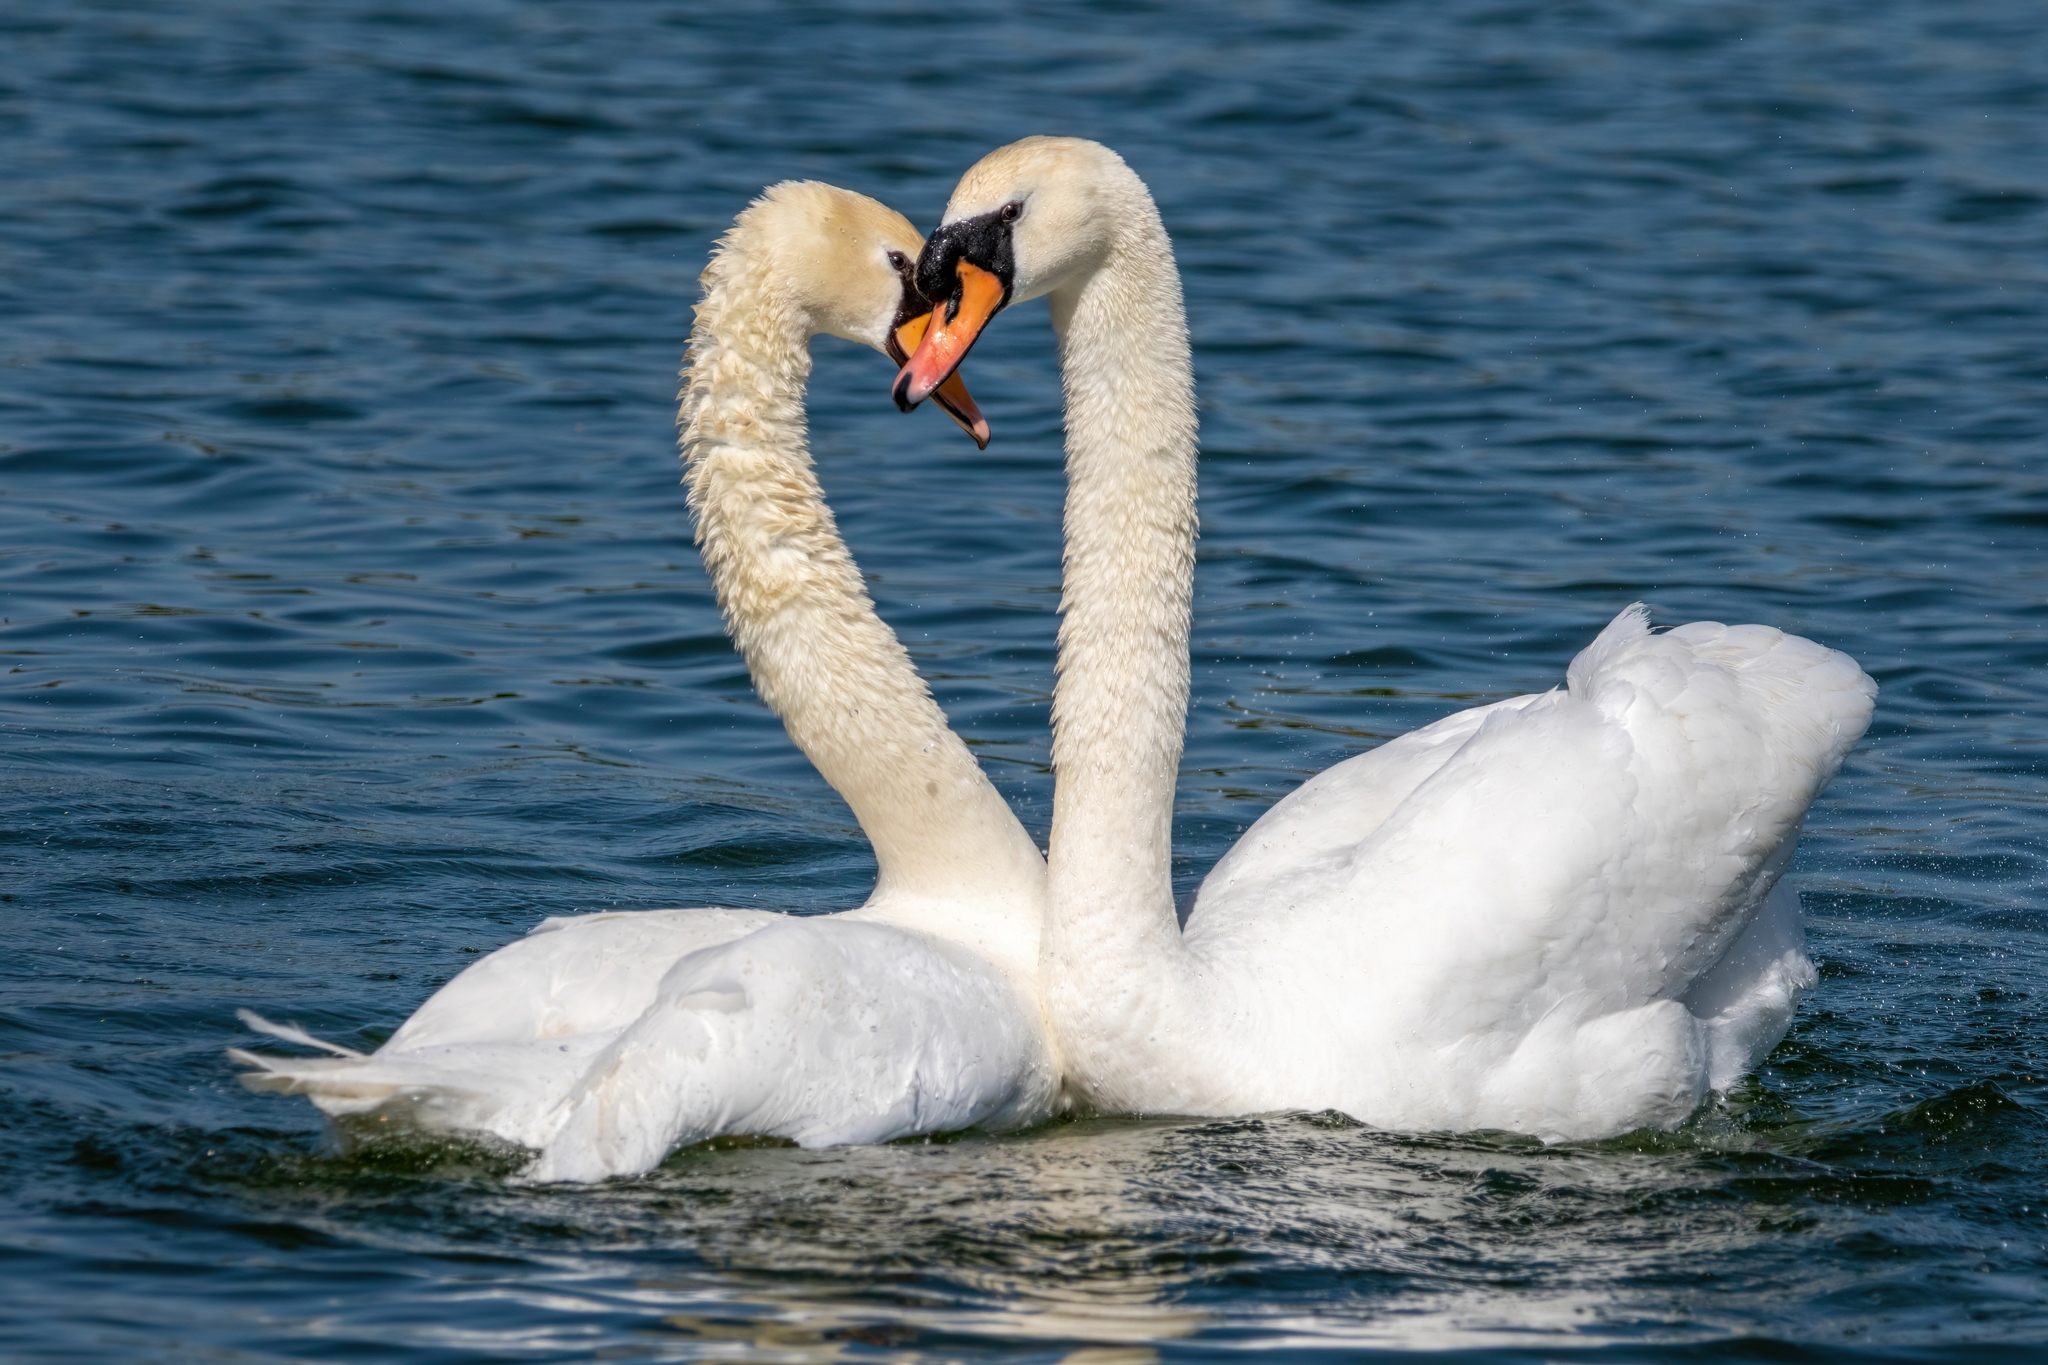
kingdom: Animalia
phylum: Chordata
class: Aves
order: Anseriformes
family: Anatidae
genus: Cygnus
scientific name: Cygnus olor
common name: Mute swan
